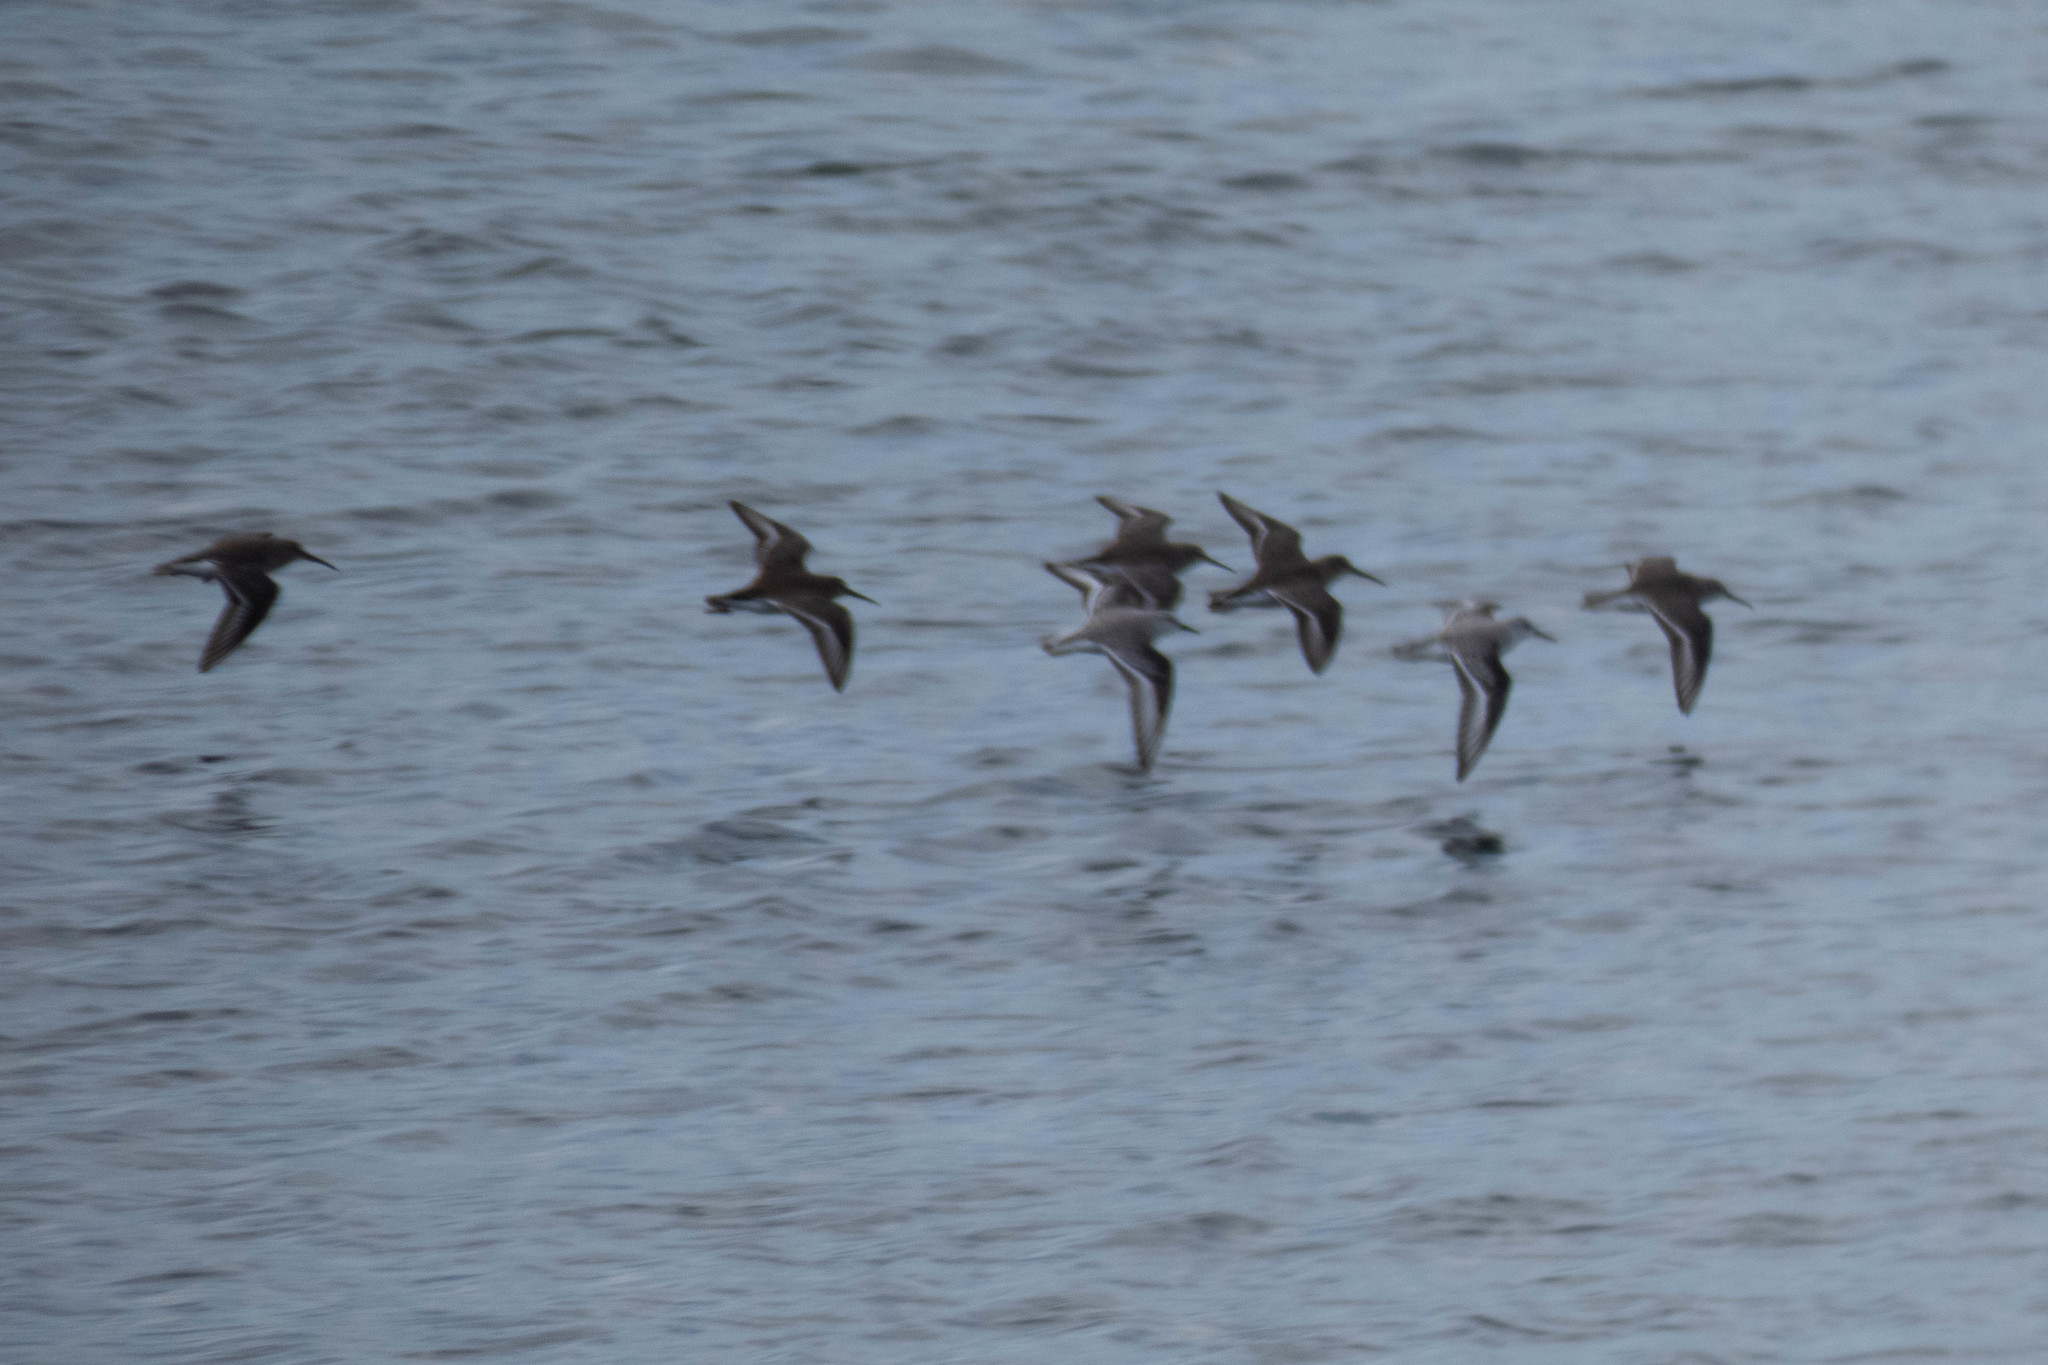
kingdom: Animalia
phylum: Chordata
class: Aves
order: Charadriiformes
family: Scolopacidae
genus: Calidris
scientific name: Calidris alpina
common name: Dunlin
